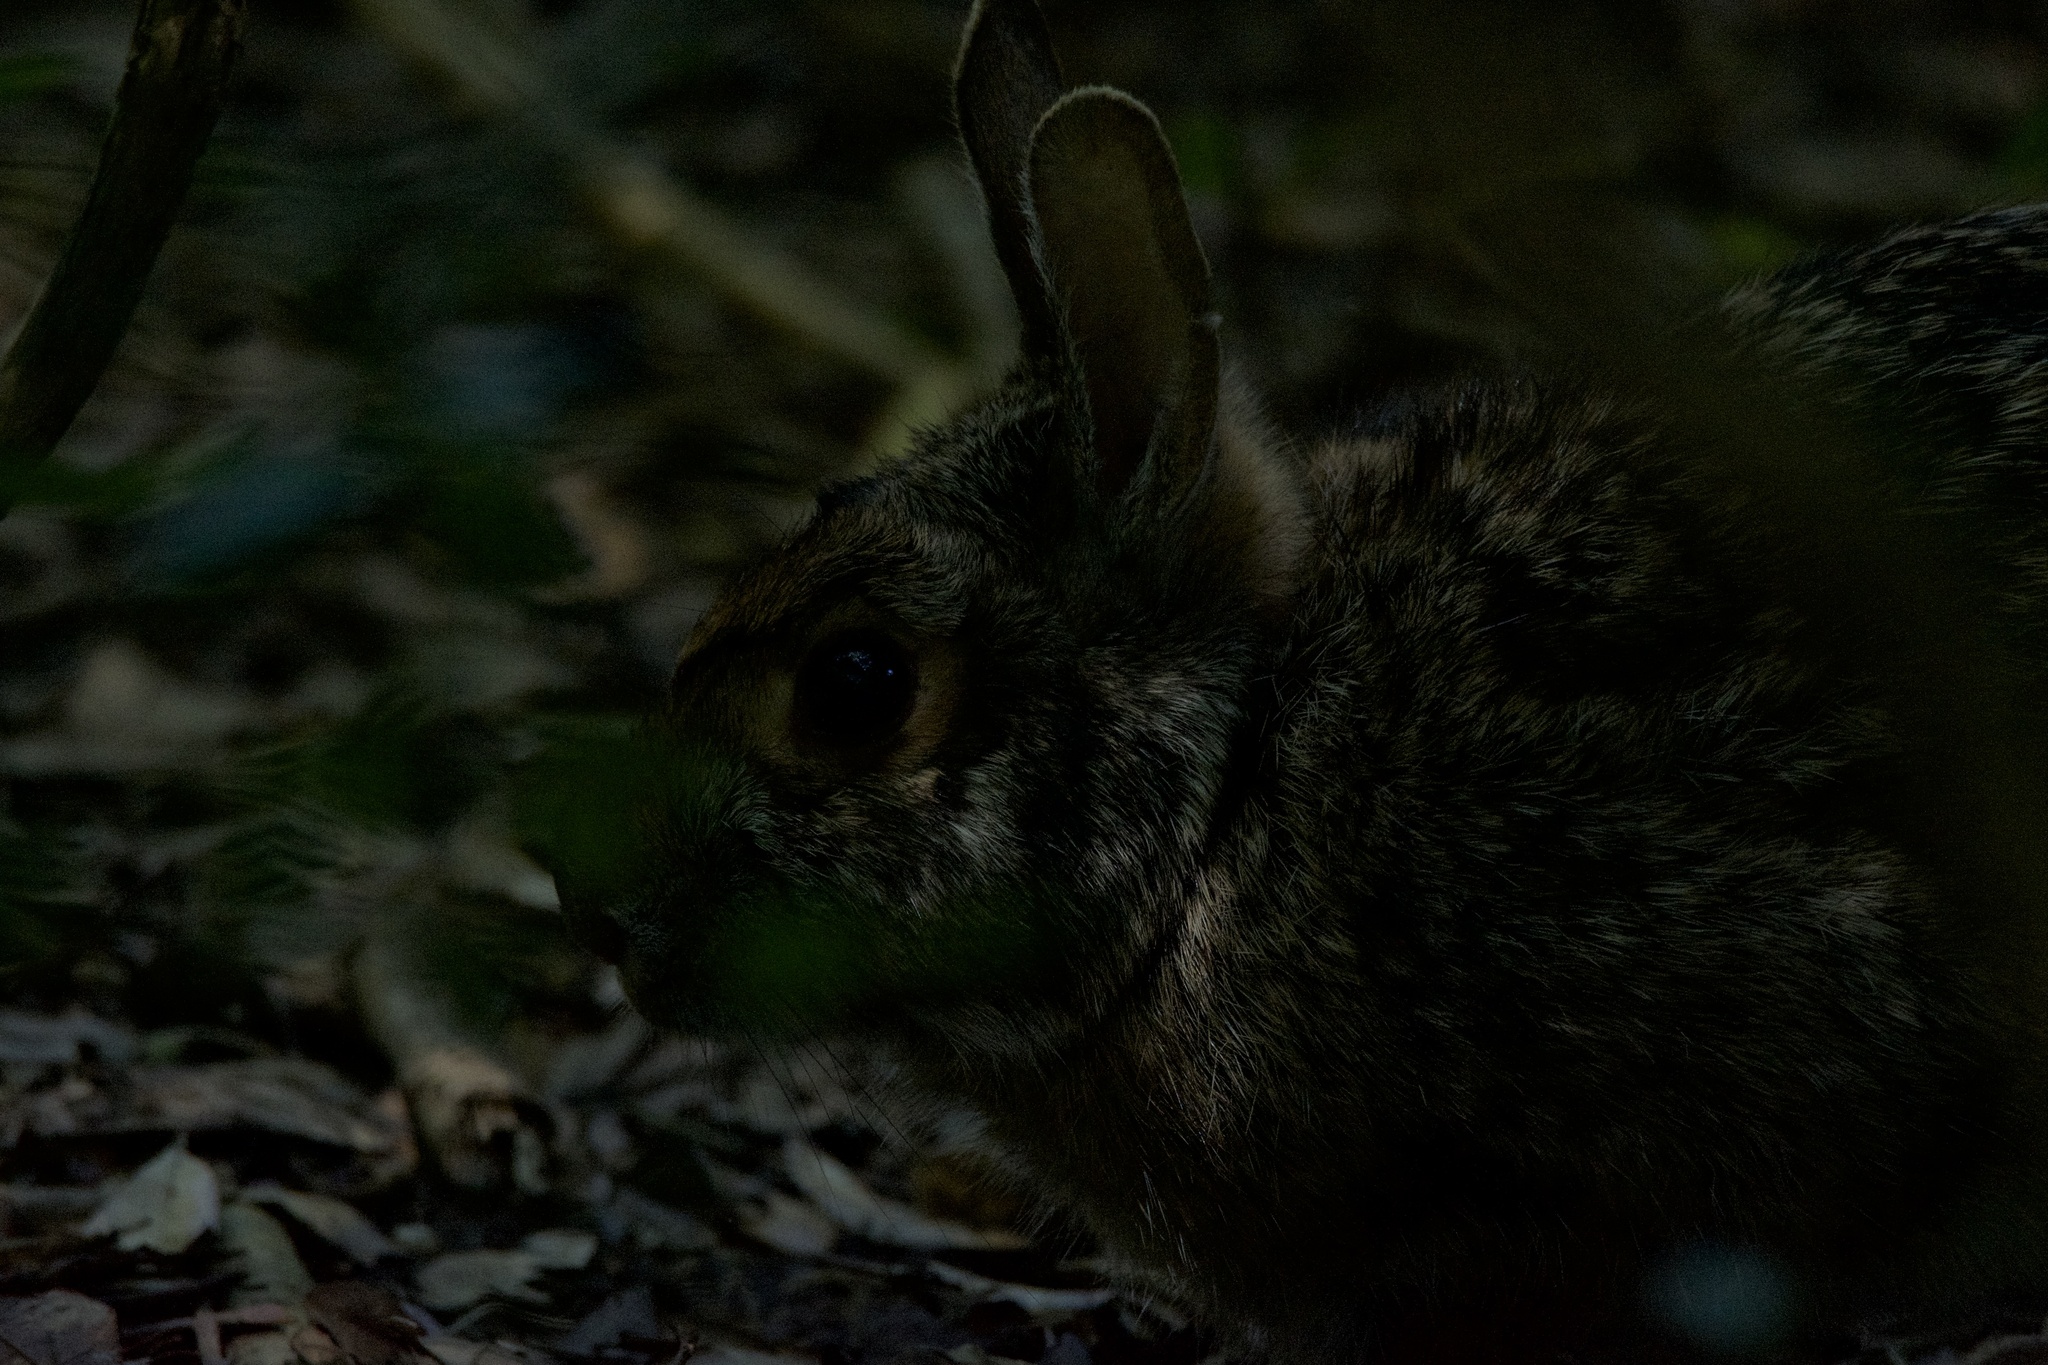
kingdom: Animalia
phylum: Chordata
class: Mammalia
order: Lagomorpha
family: Leporidae
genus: Sylvilagus
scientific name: Sylvilagus aquaticus
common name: Swamp rabbit
